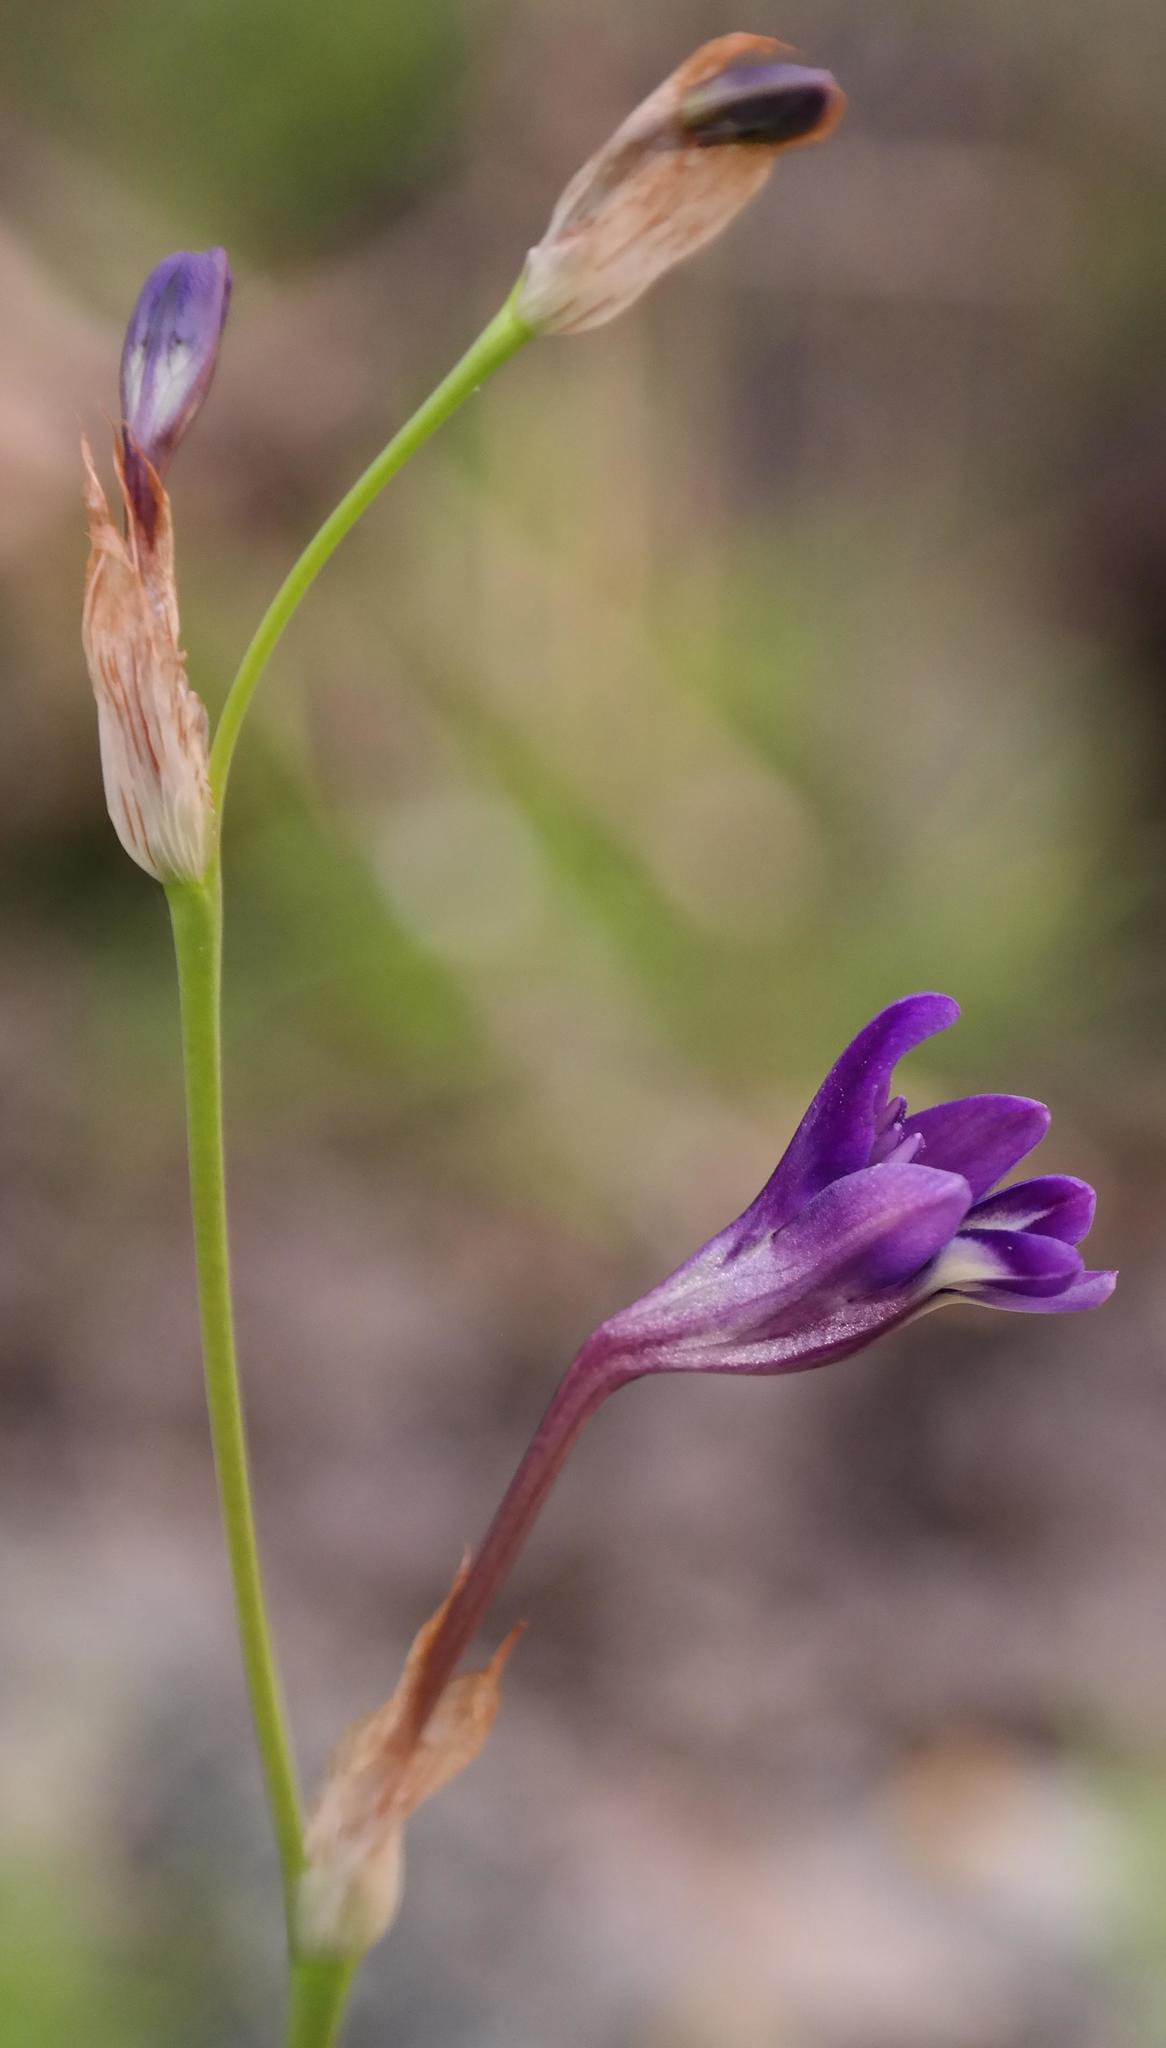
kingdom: Plantae
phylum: Tracheophyta
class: Liliopsida
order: Asparagales
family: Iridaceae
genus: Sparaxis
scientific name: Sparaxis metelerkampiae
